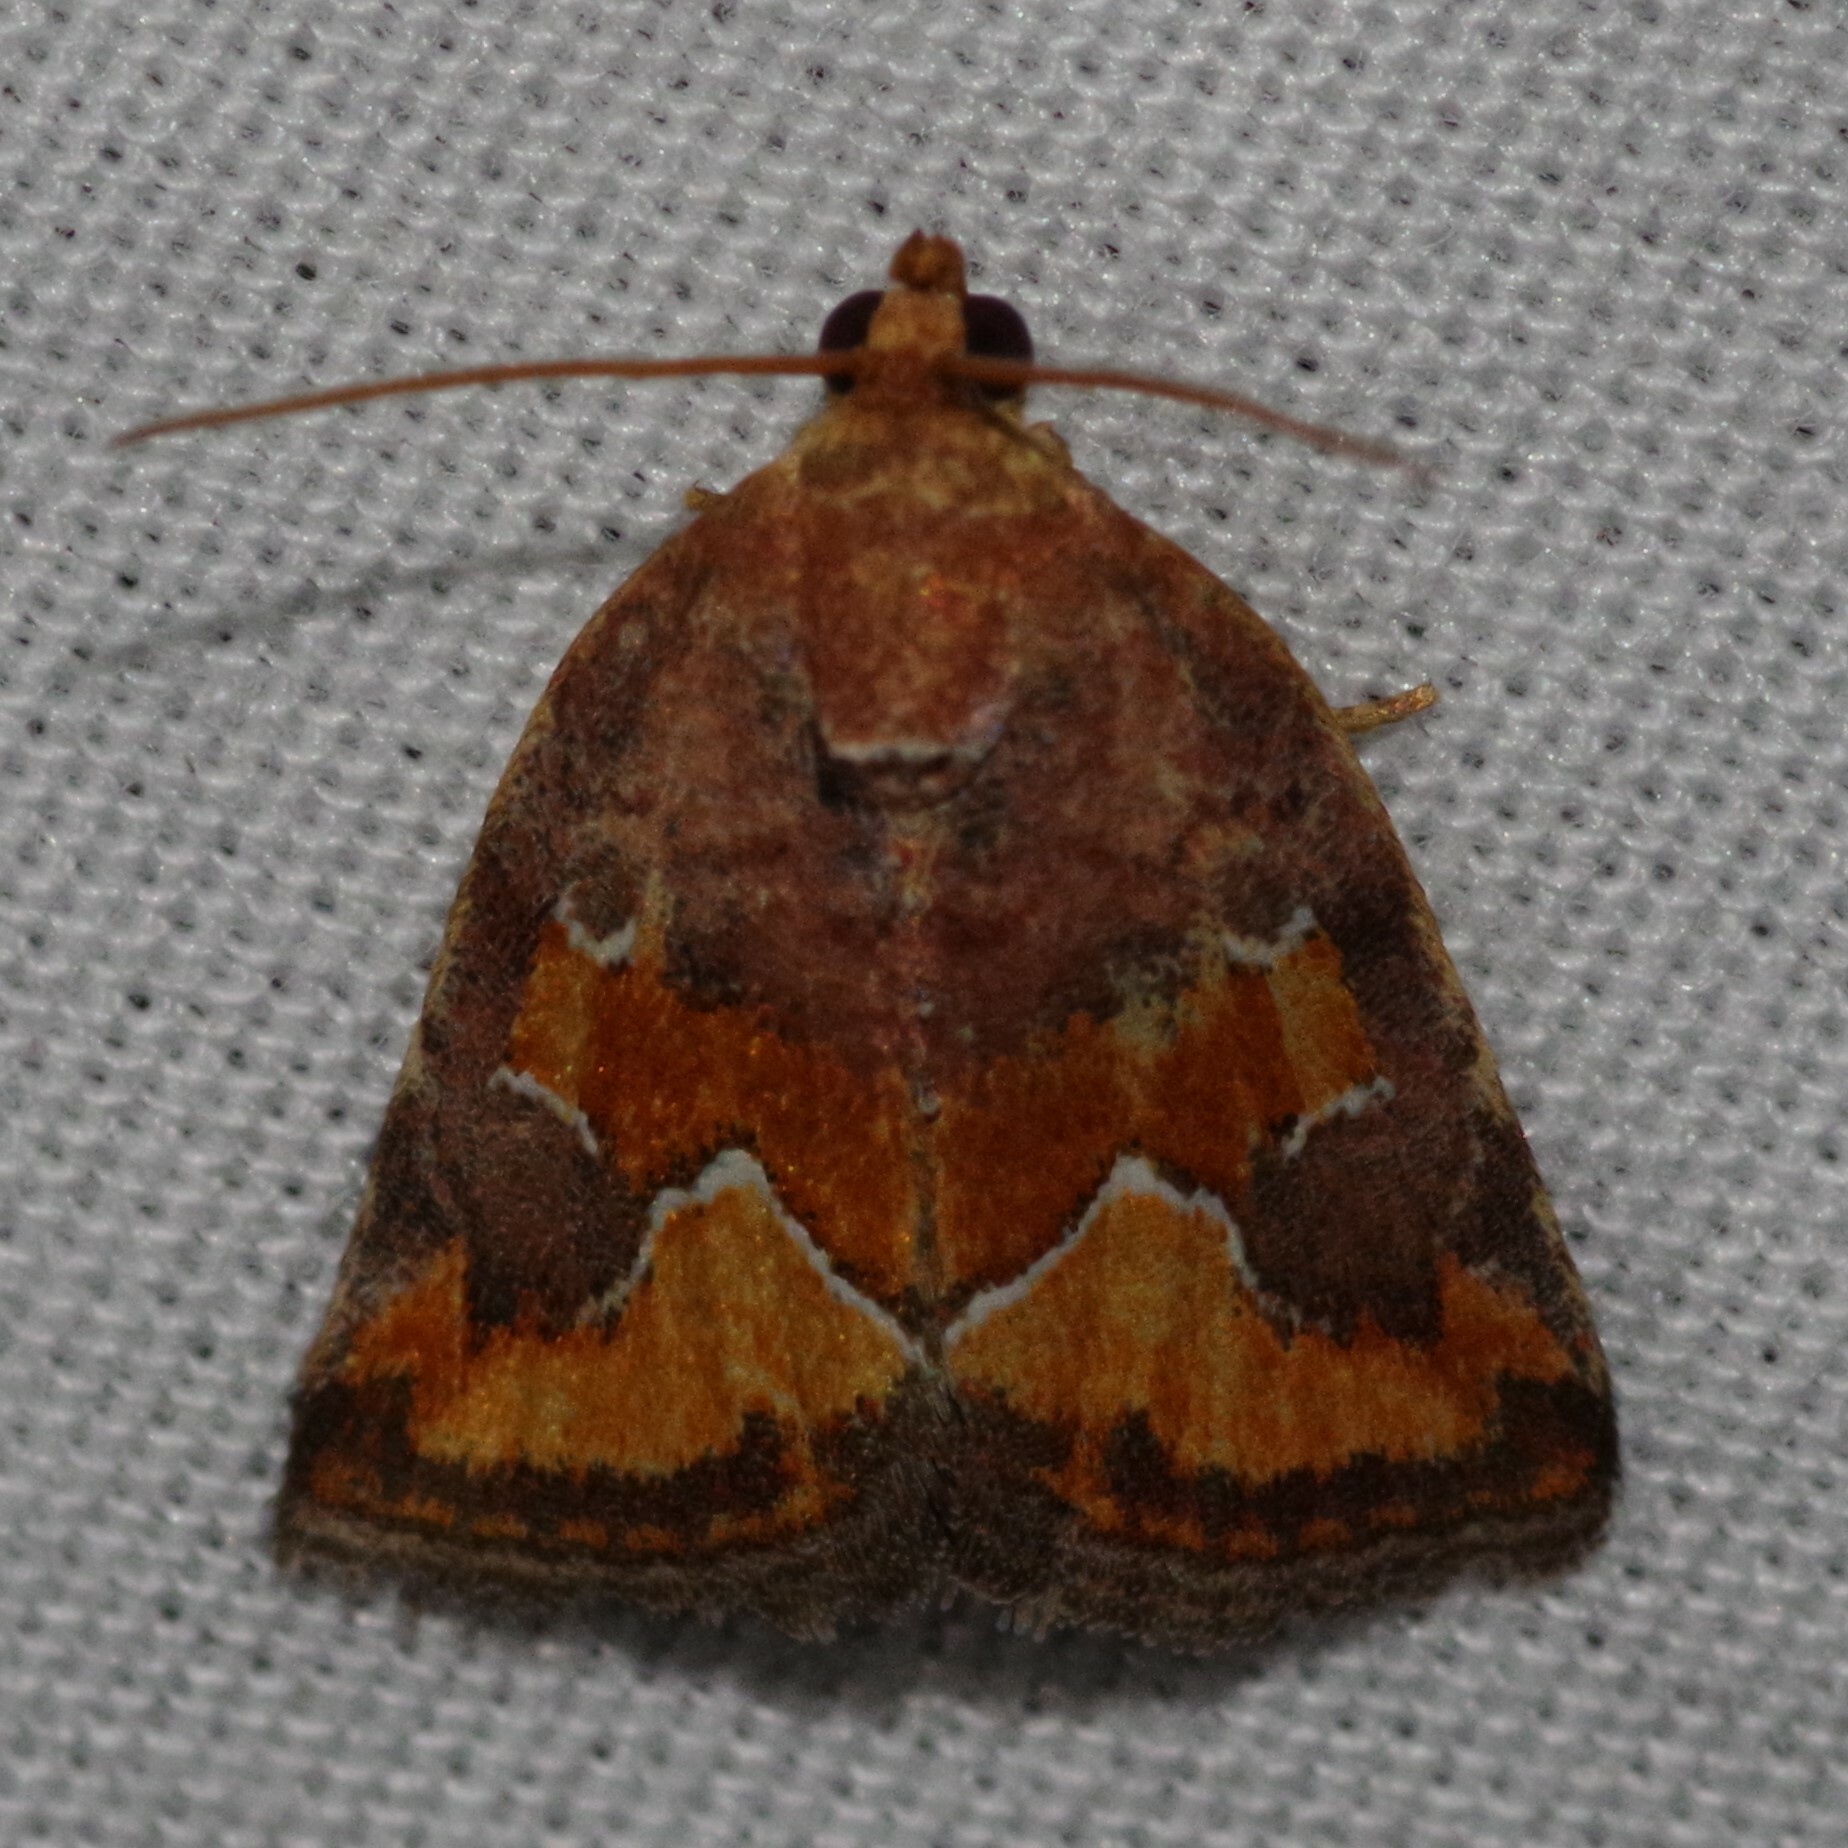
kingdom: Animalia
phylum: Arthropoda
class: Insecta
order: Lepidoptera
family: Noctuidae
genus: Deltote
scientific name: Deltote bellicula
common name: Bog glyph
